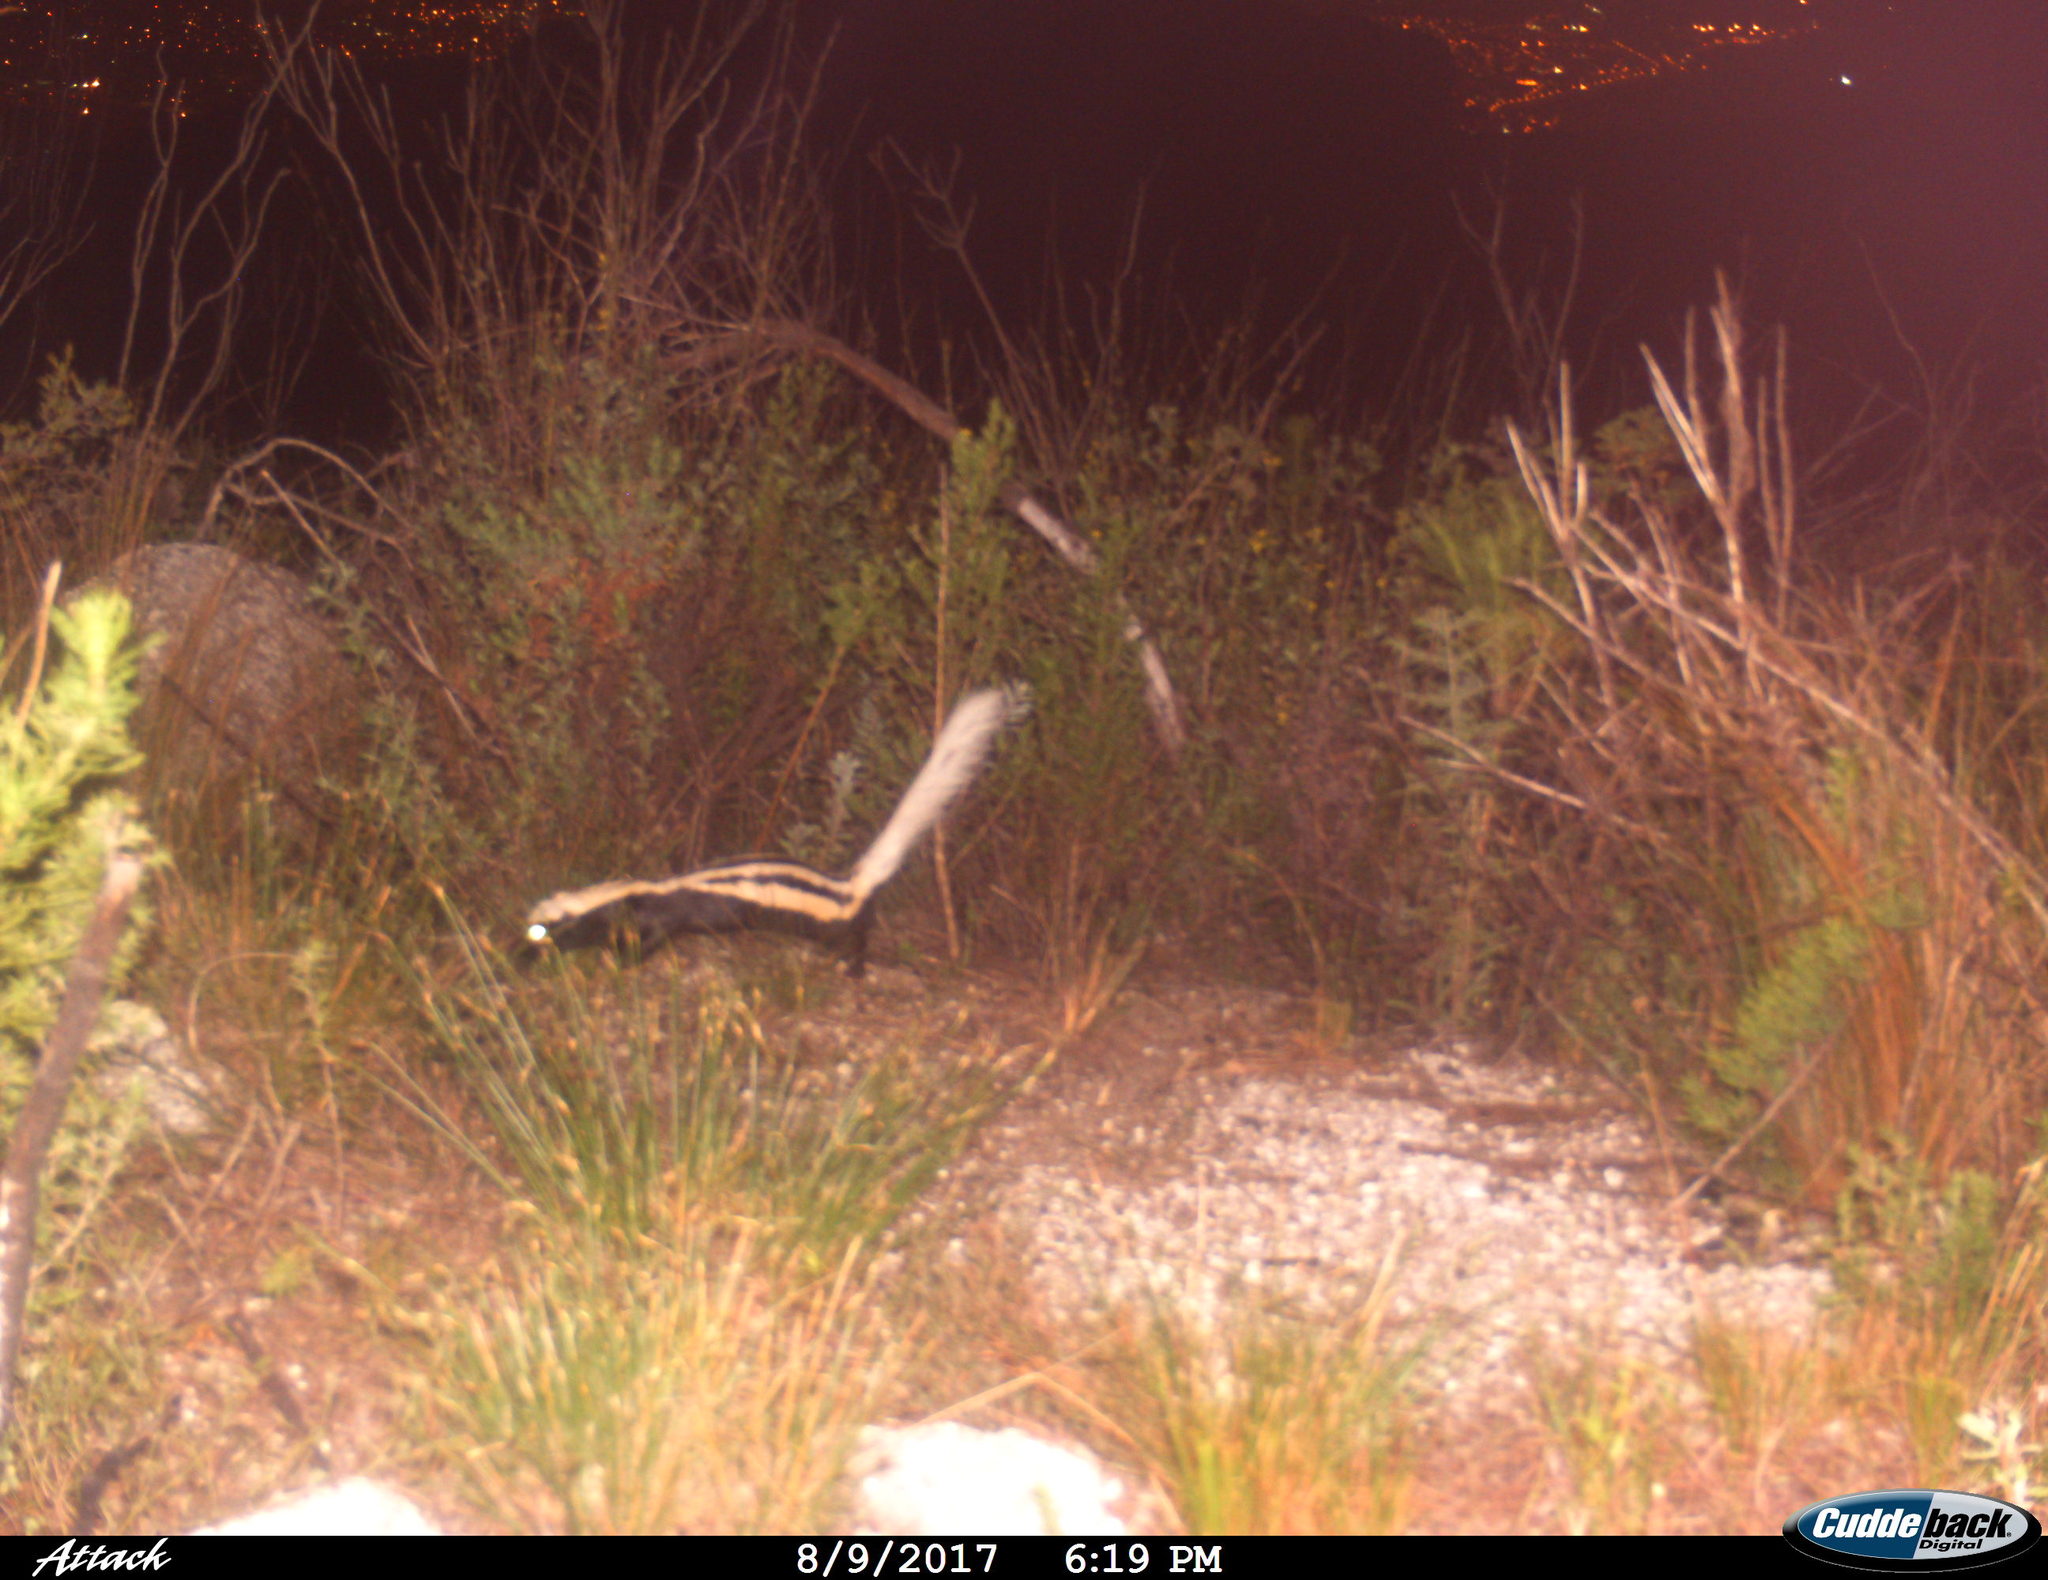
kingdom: Animalia
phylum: Chordata
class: Mammalia
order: Carnivora
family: Mustelidae
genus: Poecilogale
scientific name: Poecilogale albinucha
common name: African striped weasel
